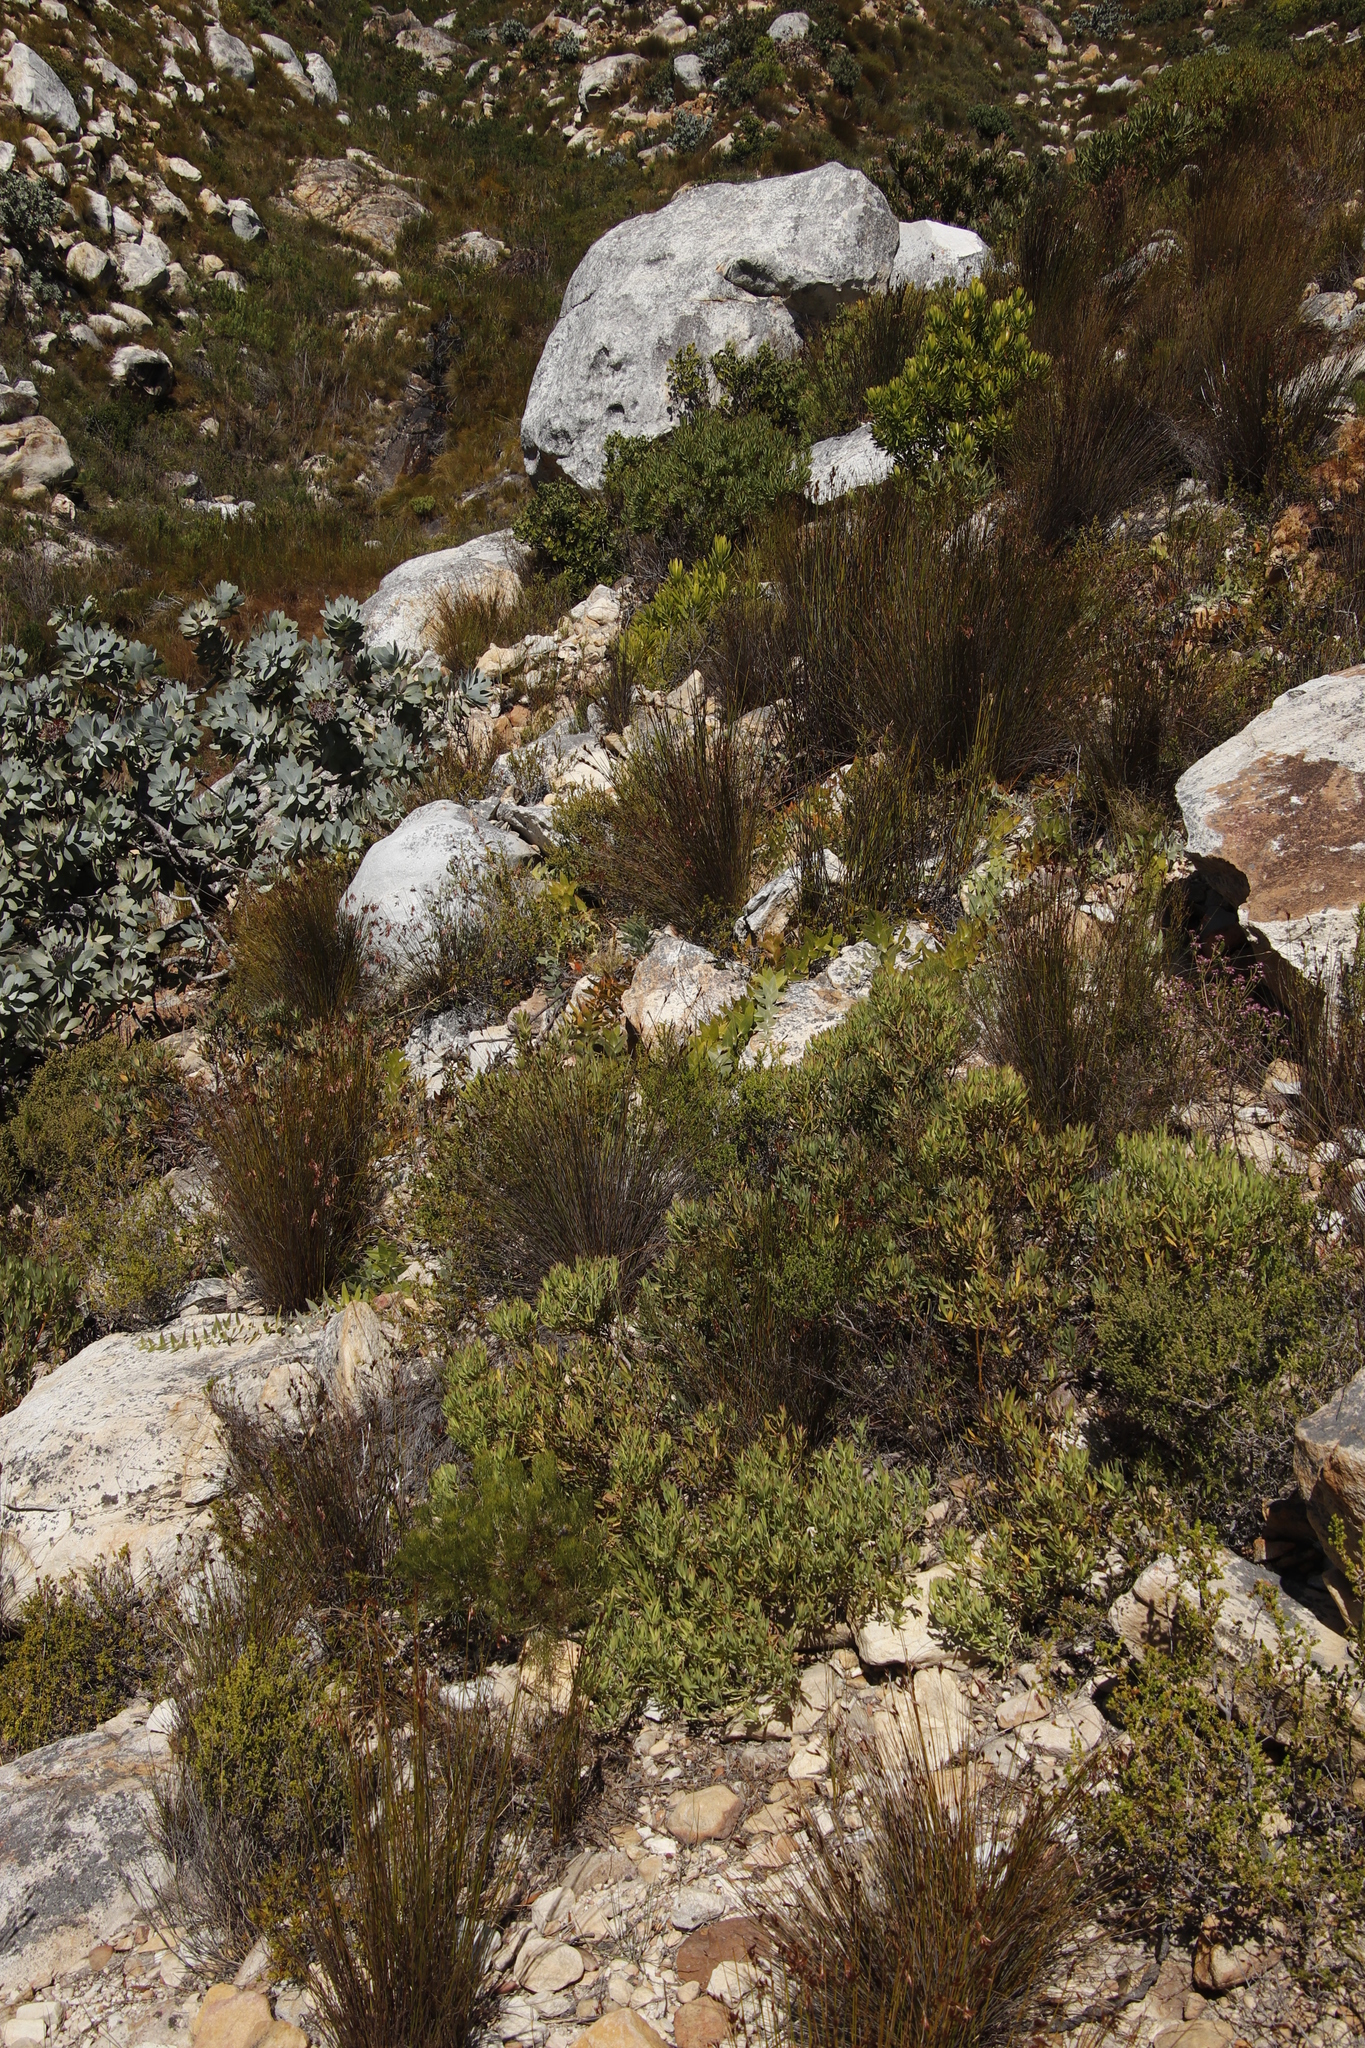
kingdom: Plantae
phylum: Tracheophyta
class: Magnoliopsida
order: Proteales
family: Proteaceae
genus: Leucadendron
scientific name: Leucadendron salignum
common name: Common sunshine conebush
